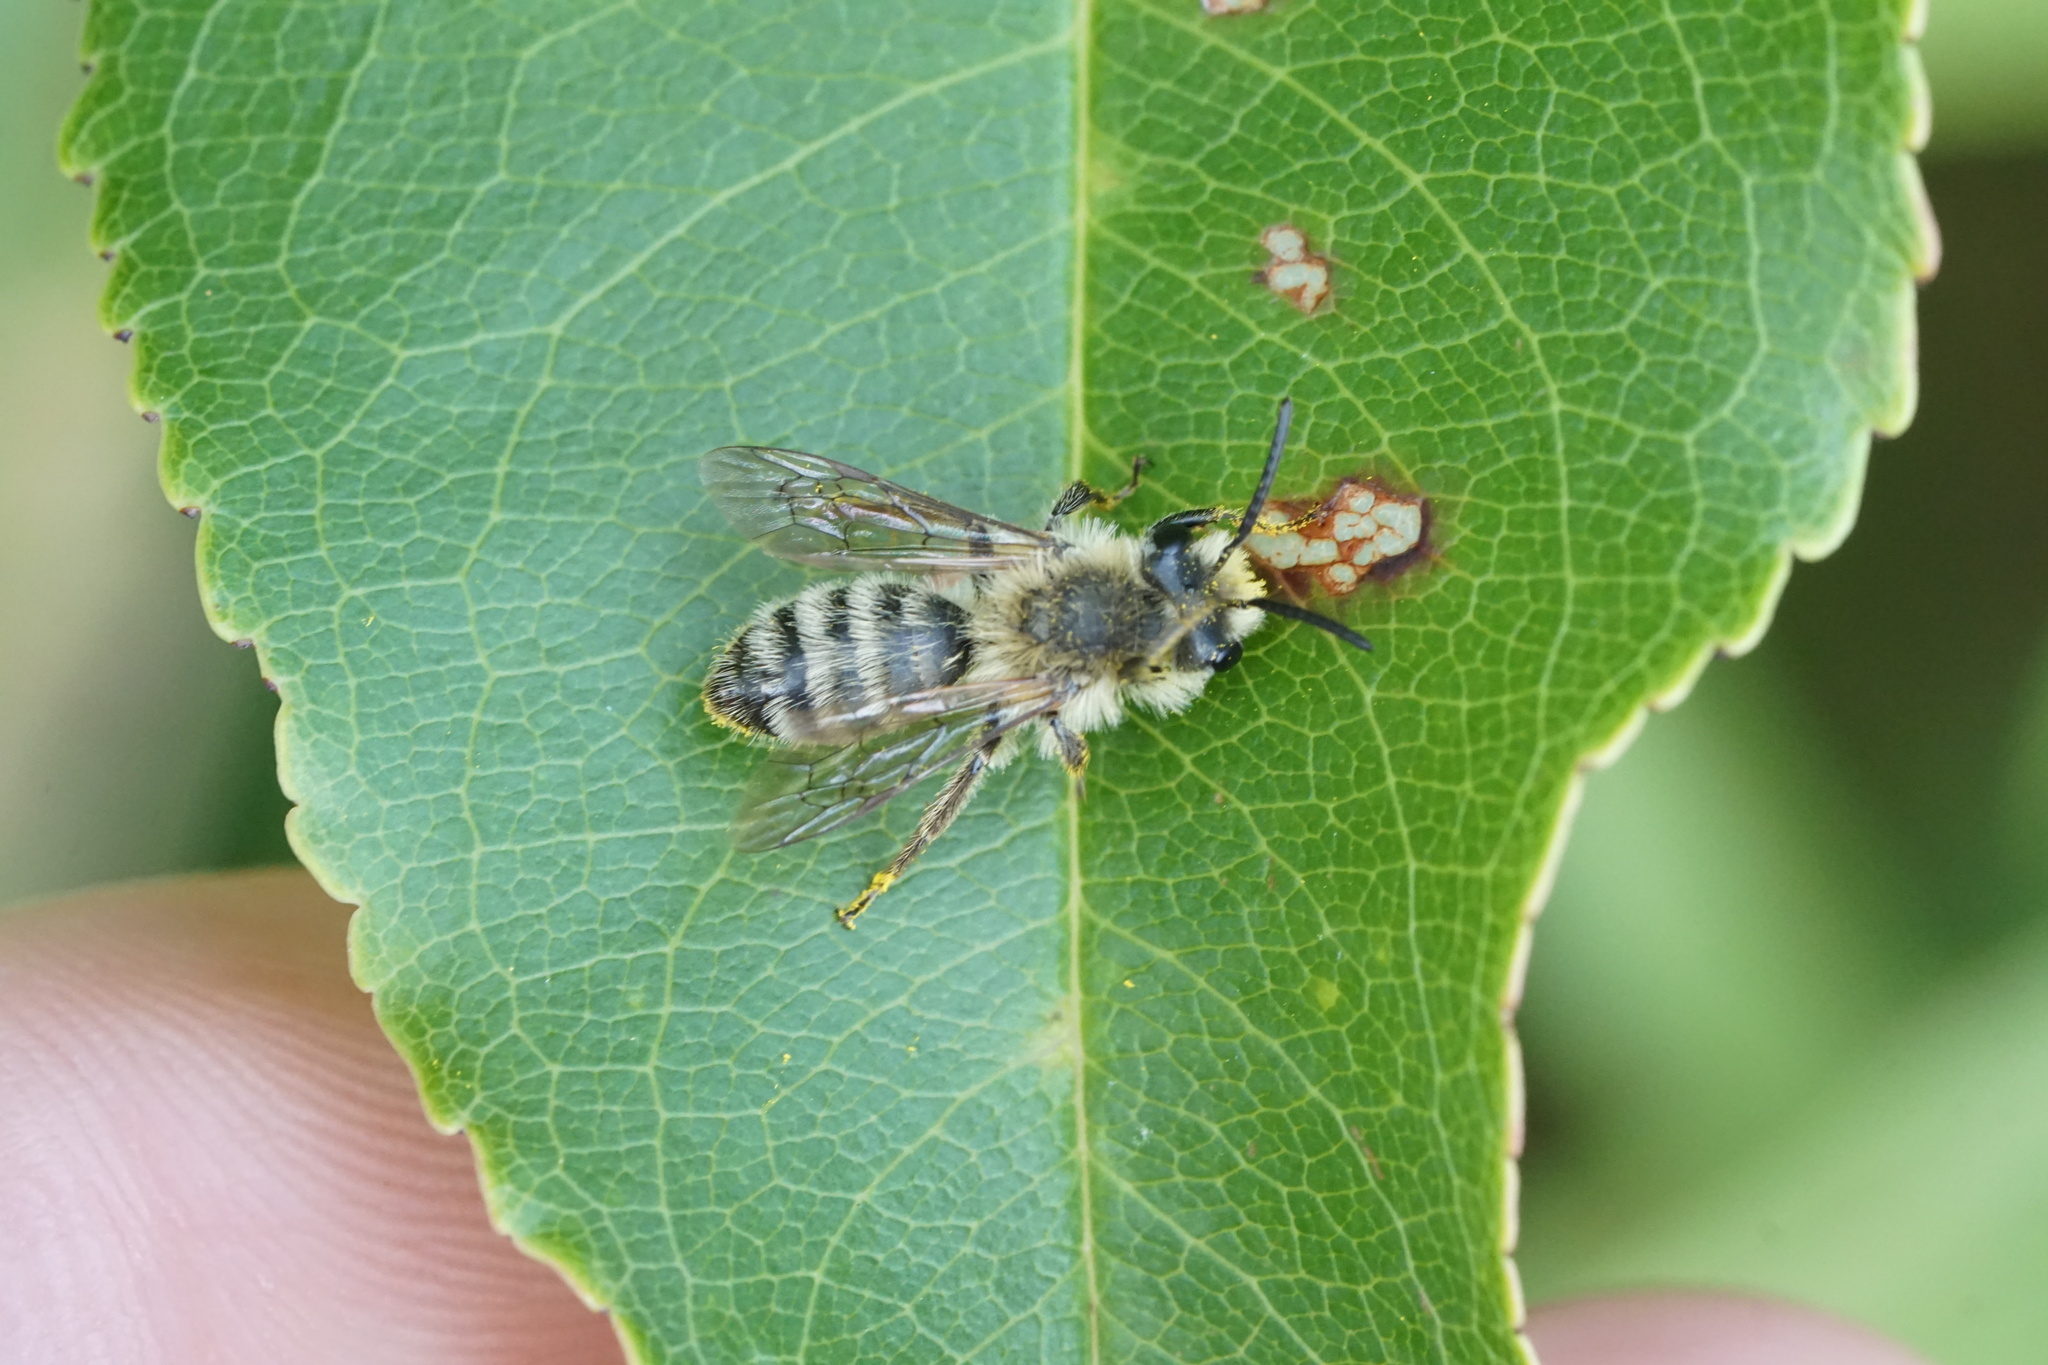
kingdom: Animalia
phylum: Arthropoda
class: Insecta
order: Hymenoptera
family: Andrenidae
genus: Andrena
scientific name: Andrena hirticincta
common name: Hairy-banded mining bee
